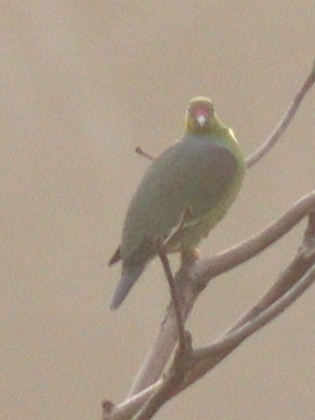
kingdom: Animalia
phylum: Chordata
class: Aves
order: Columbiformes
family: Columbidae
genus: Treron
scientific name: Treron calvus
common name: African green pigeon
